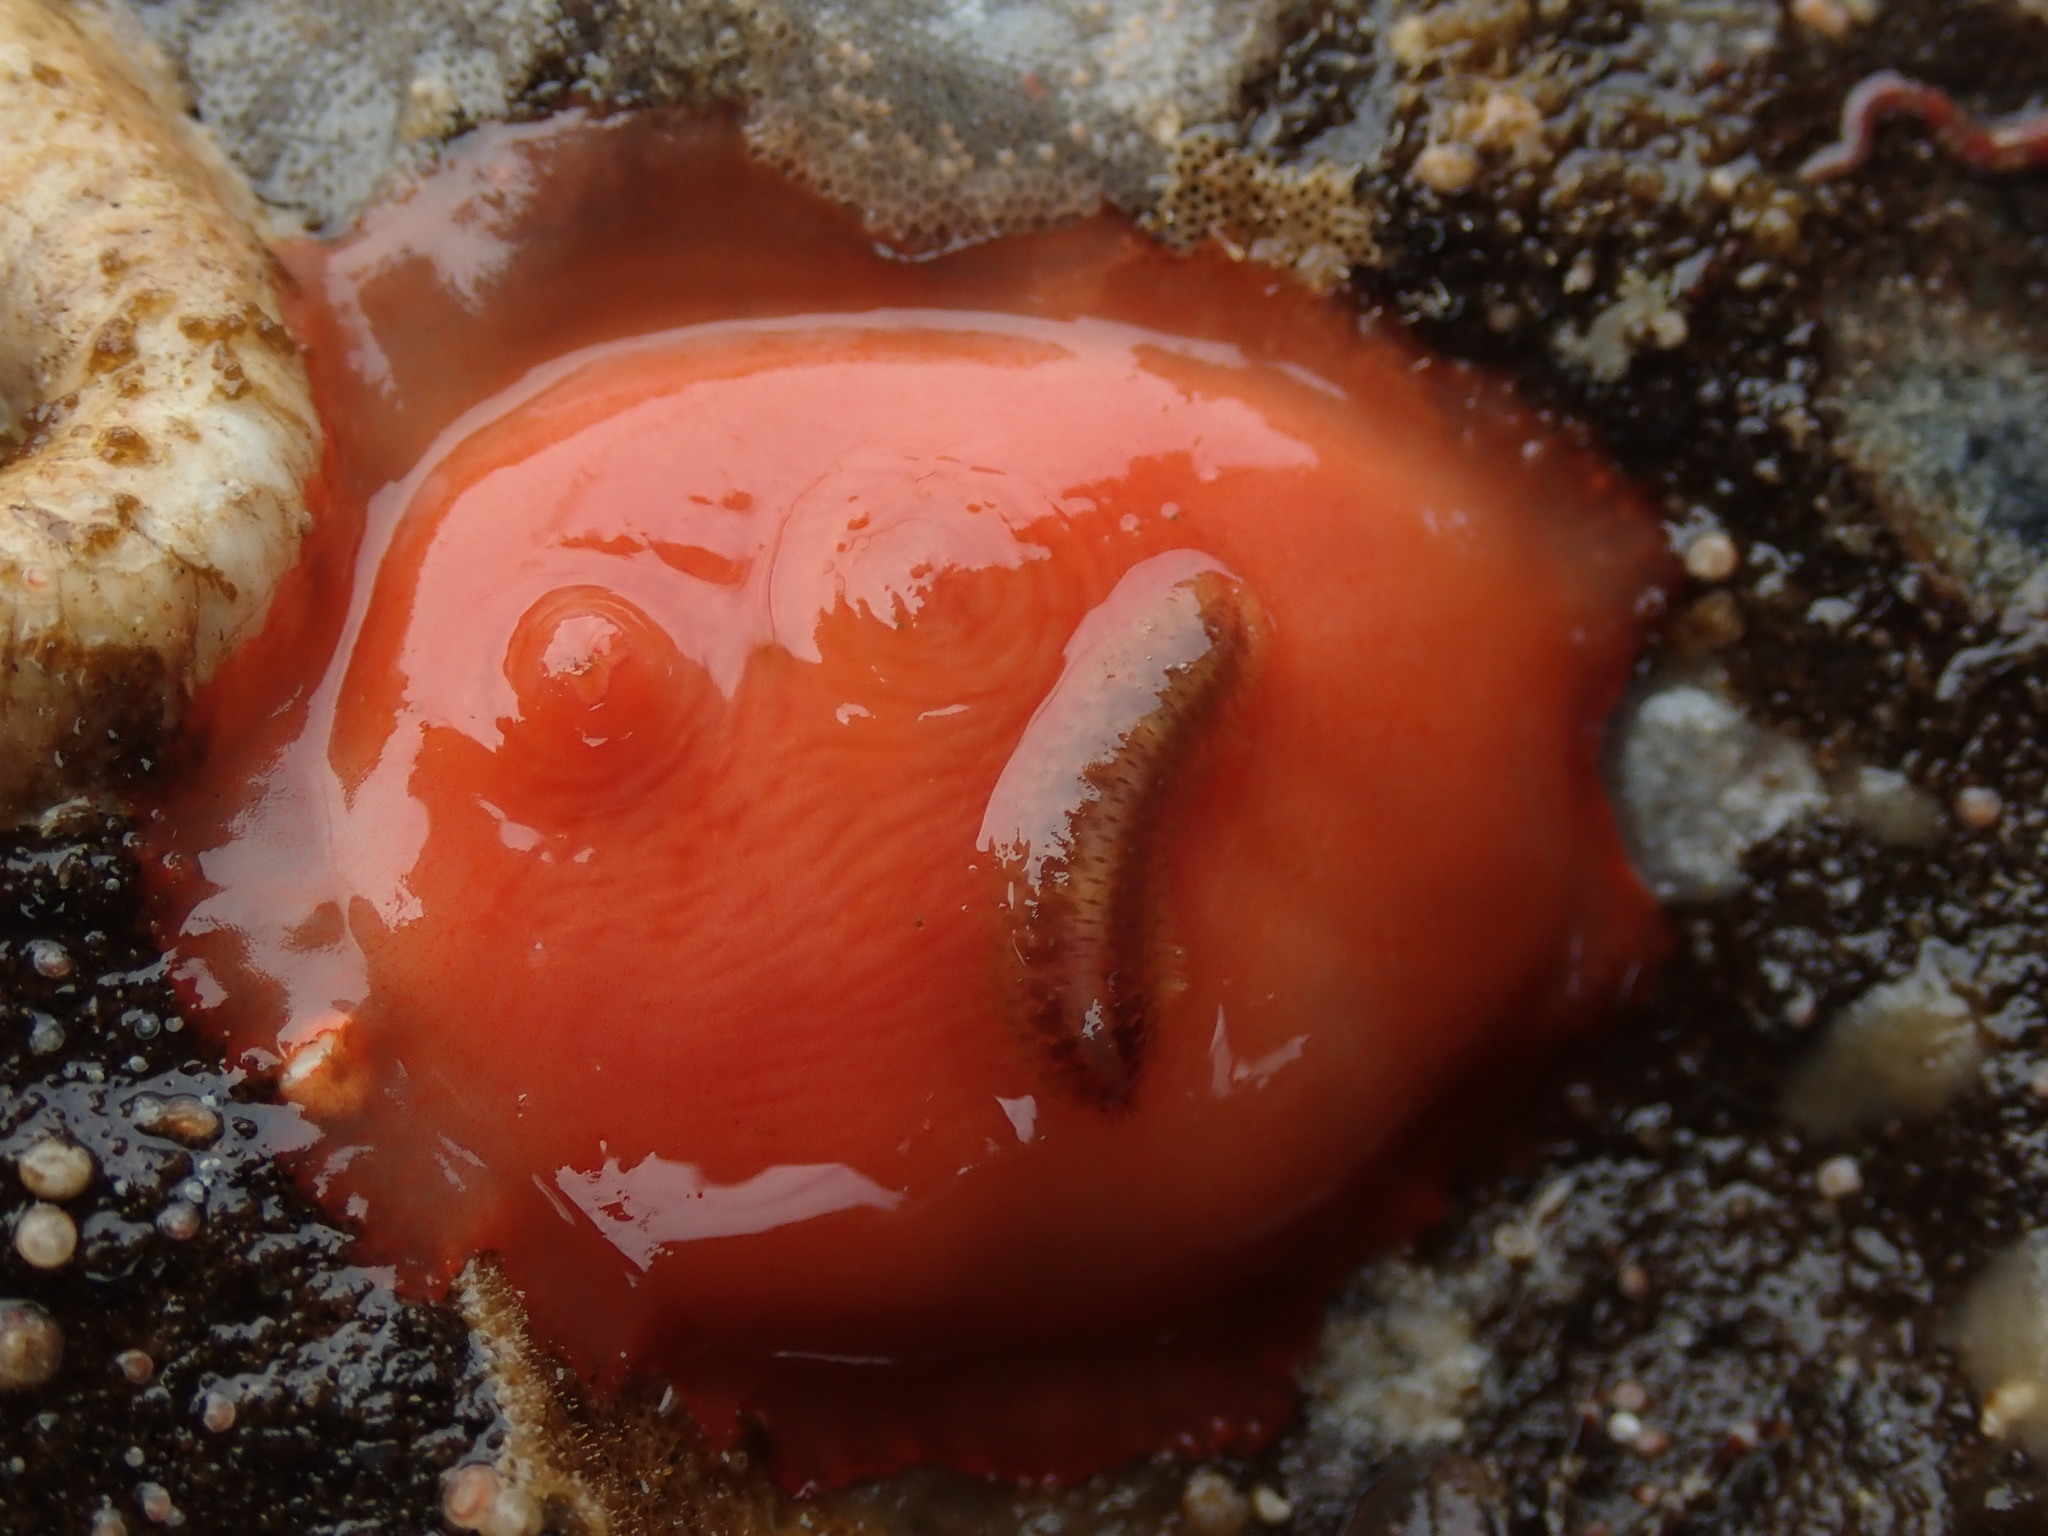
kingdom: Animalia
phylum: Chordata
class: Ascidiacea
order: Stolidobranchia
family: Styelidae
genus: Cnemidocarpa
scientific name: Cnemidocarpa finmarkiensis
